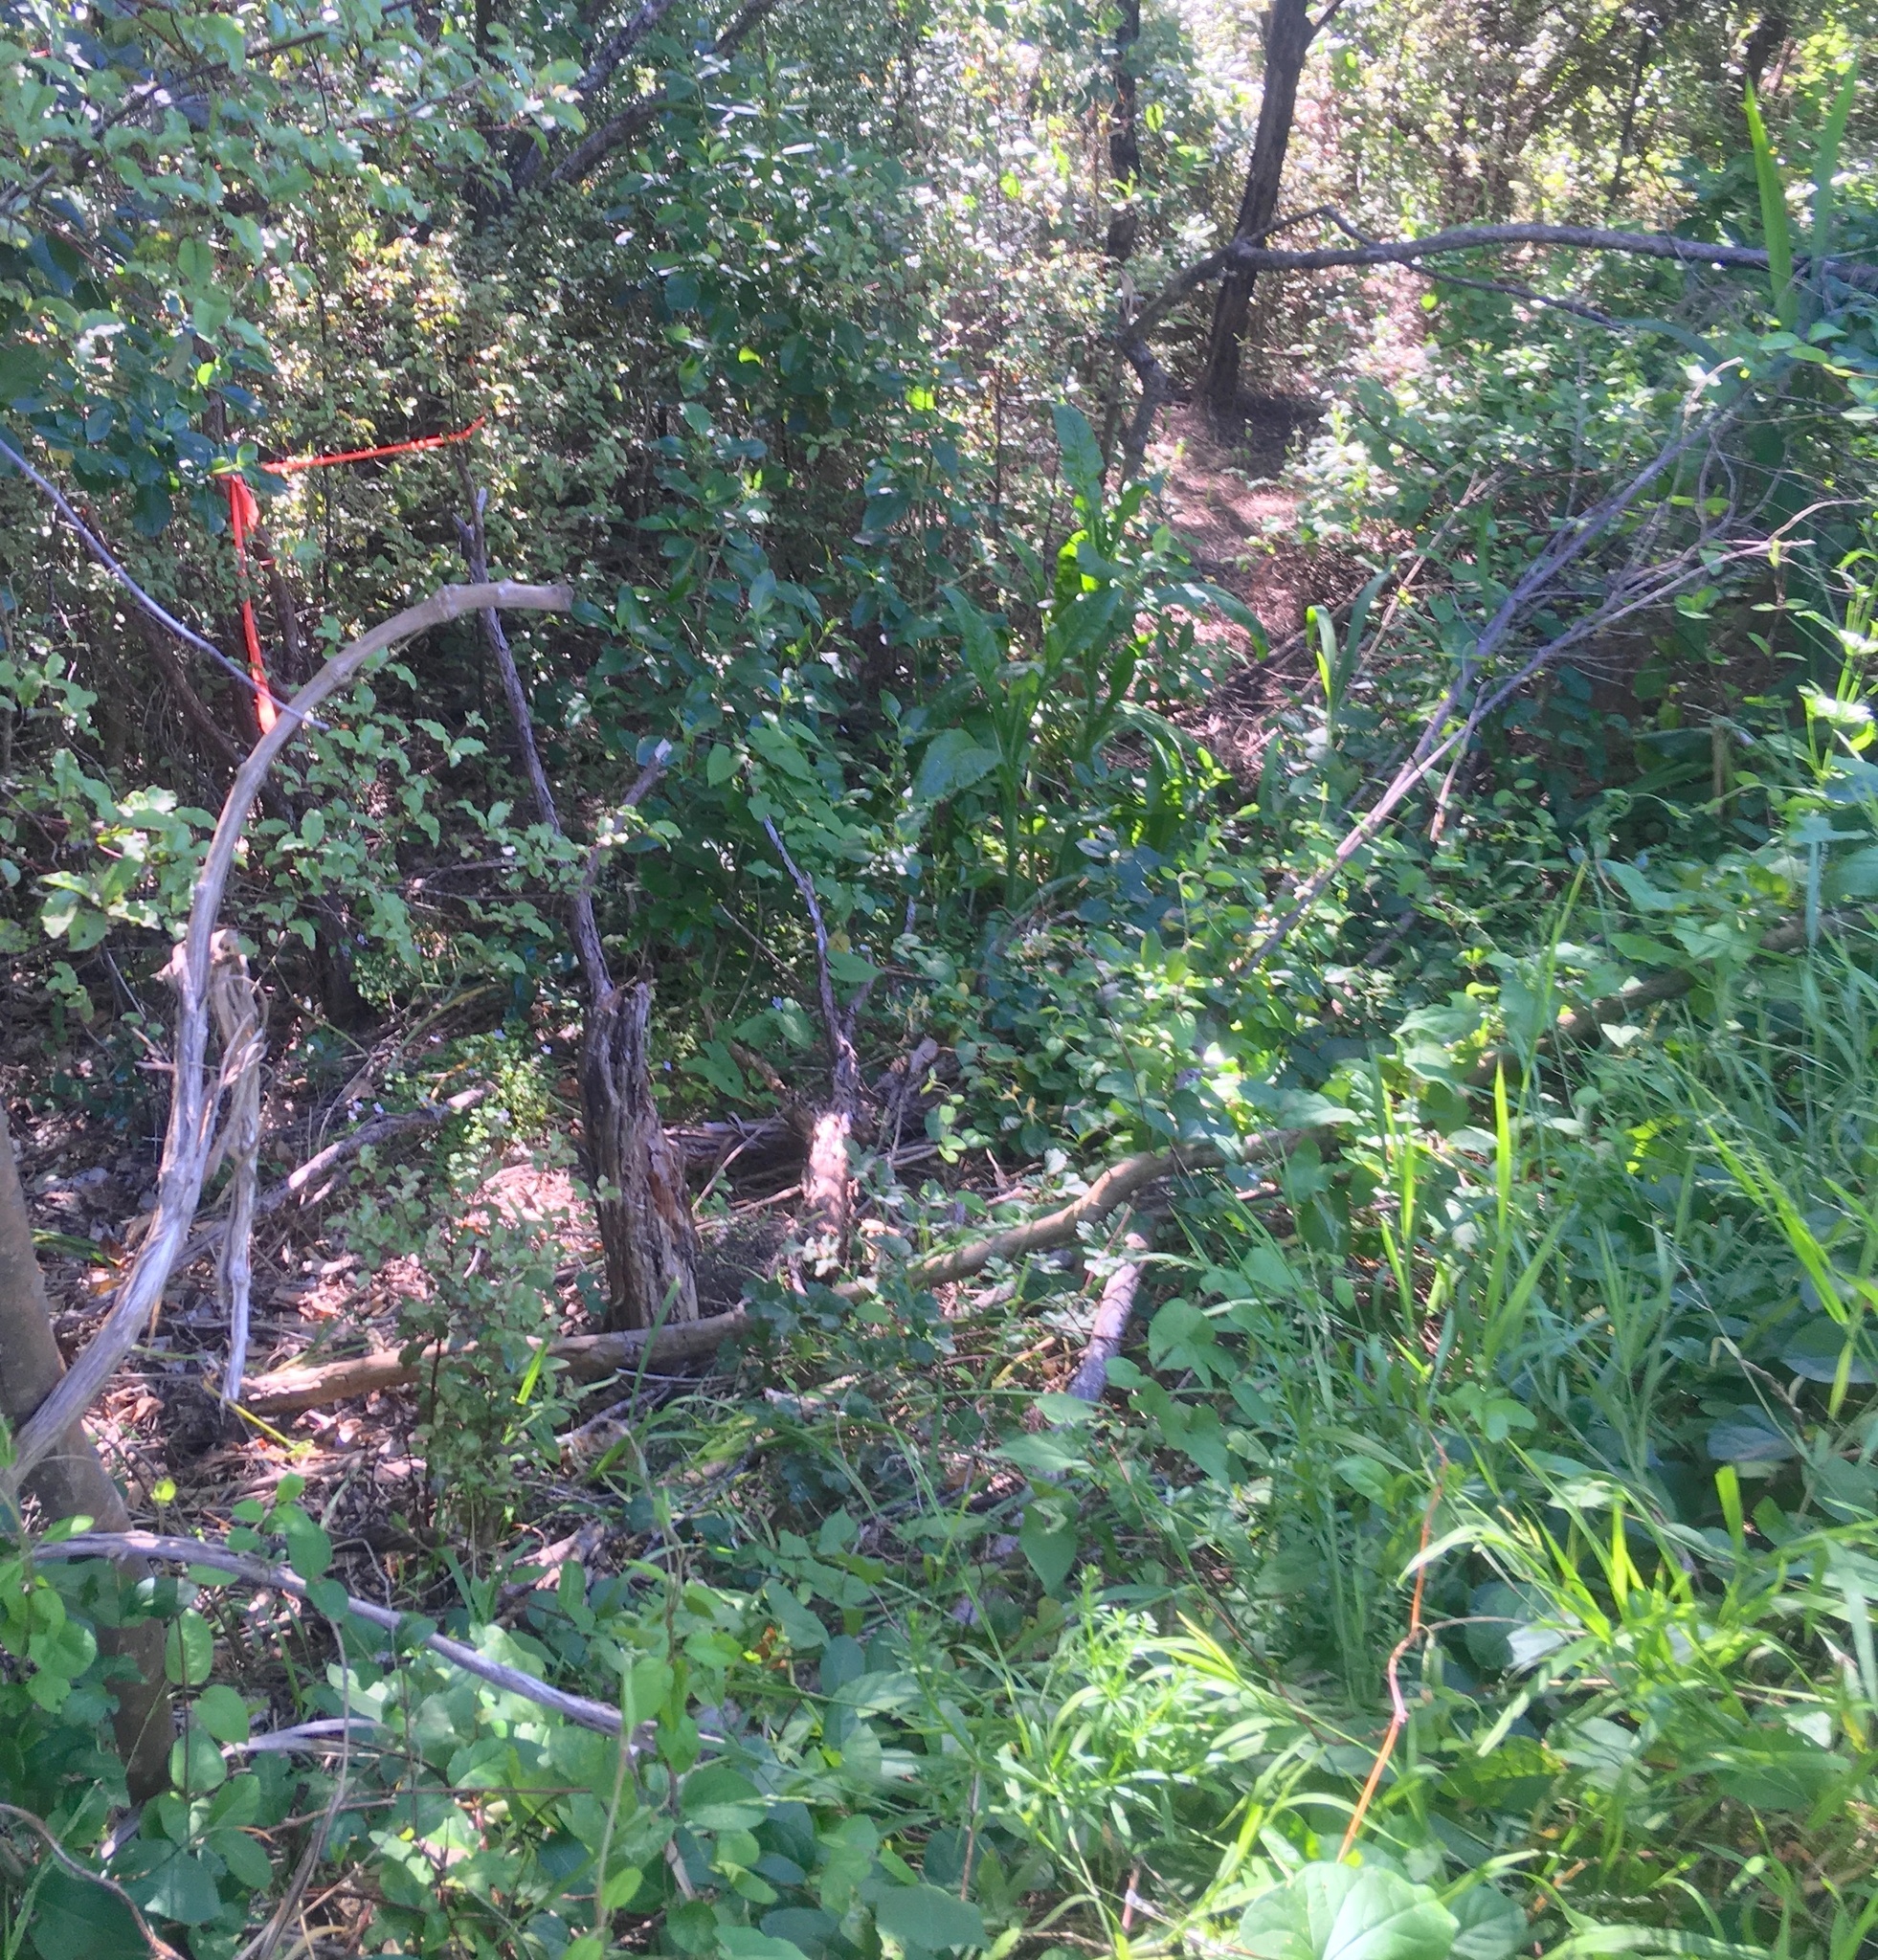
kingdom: Plantae
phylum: Tracheophyta
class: Magnoliopsida
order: Ericales
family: Primulaceae
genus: Myrsine
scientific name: Myrsine australis
